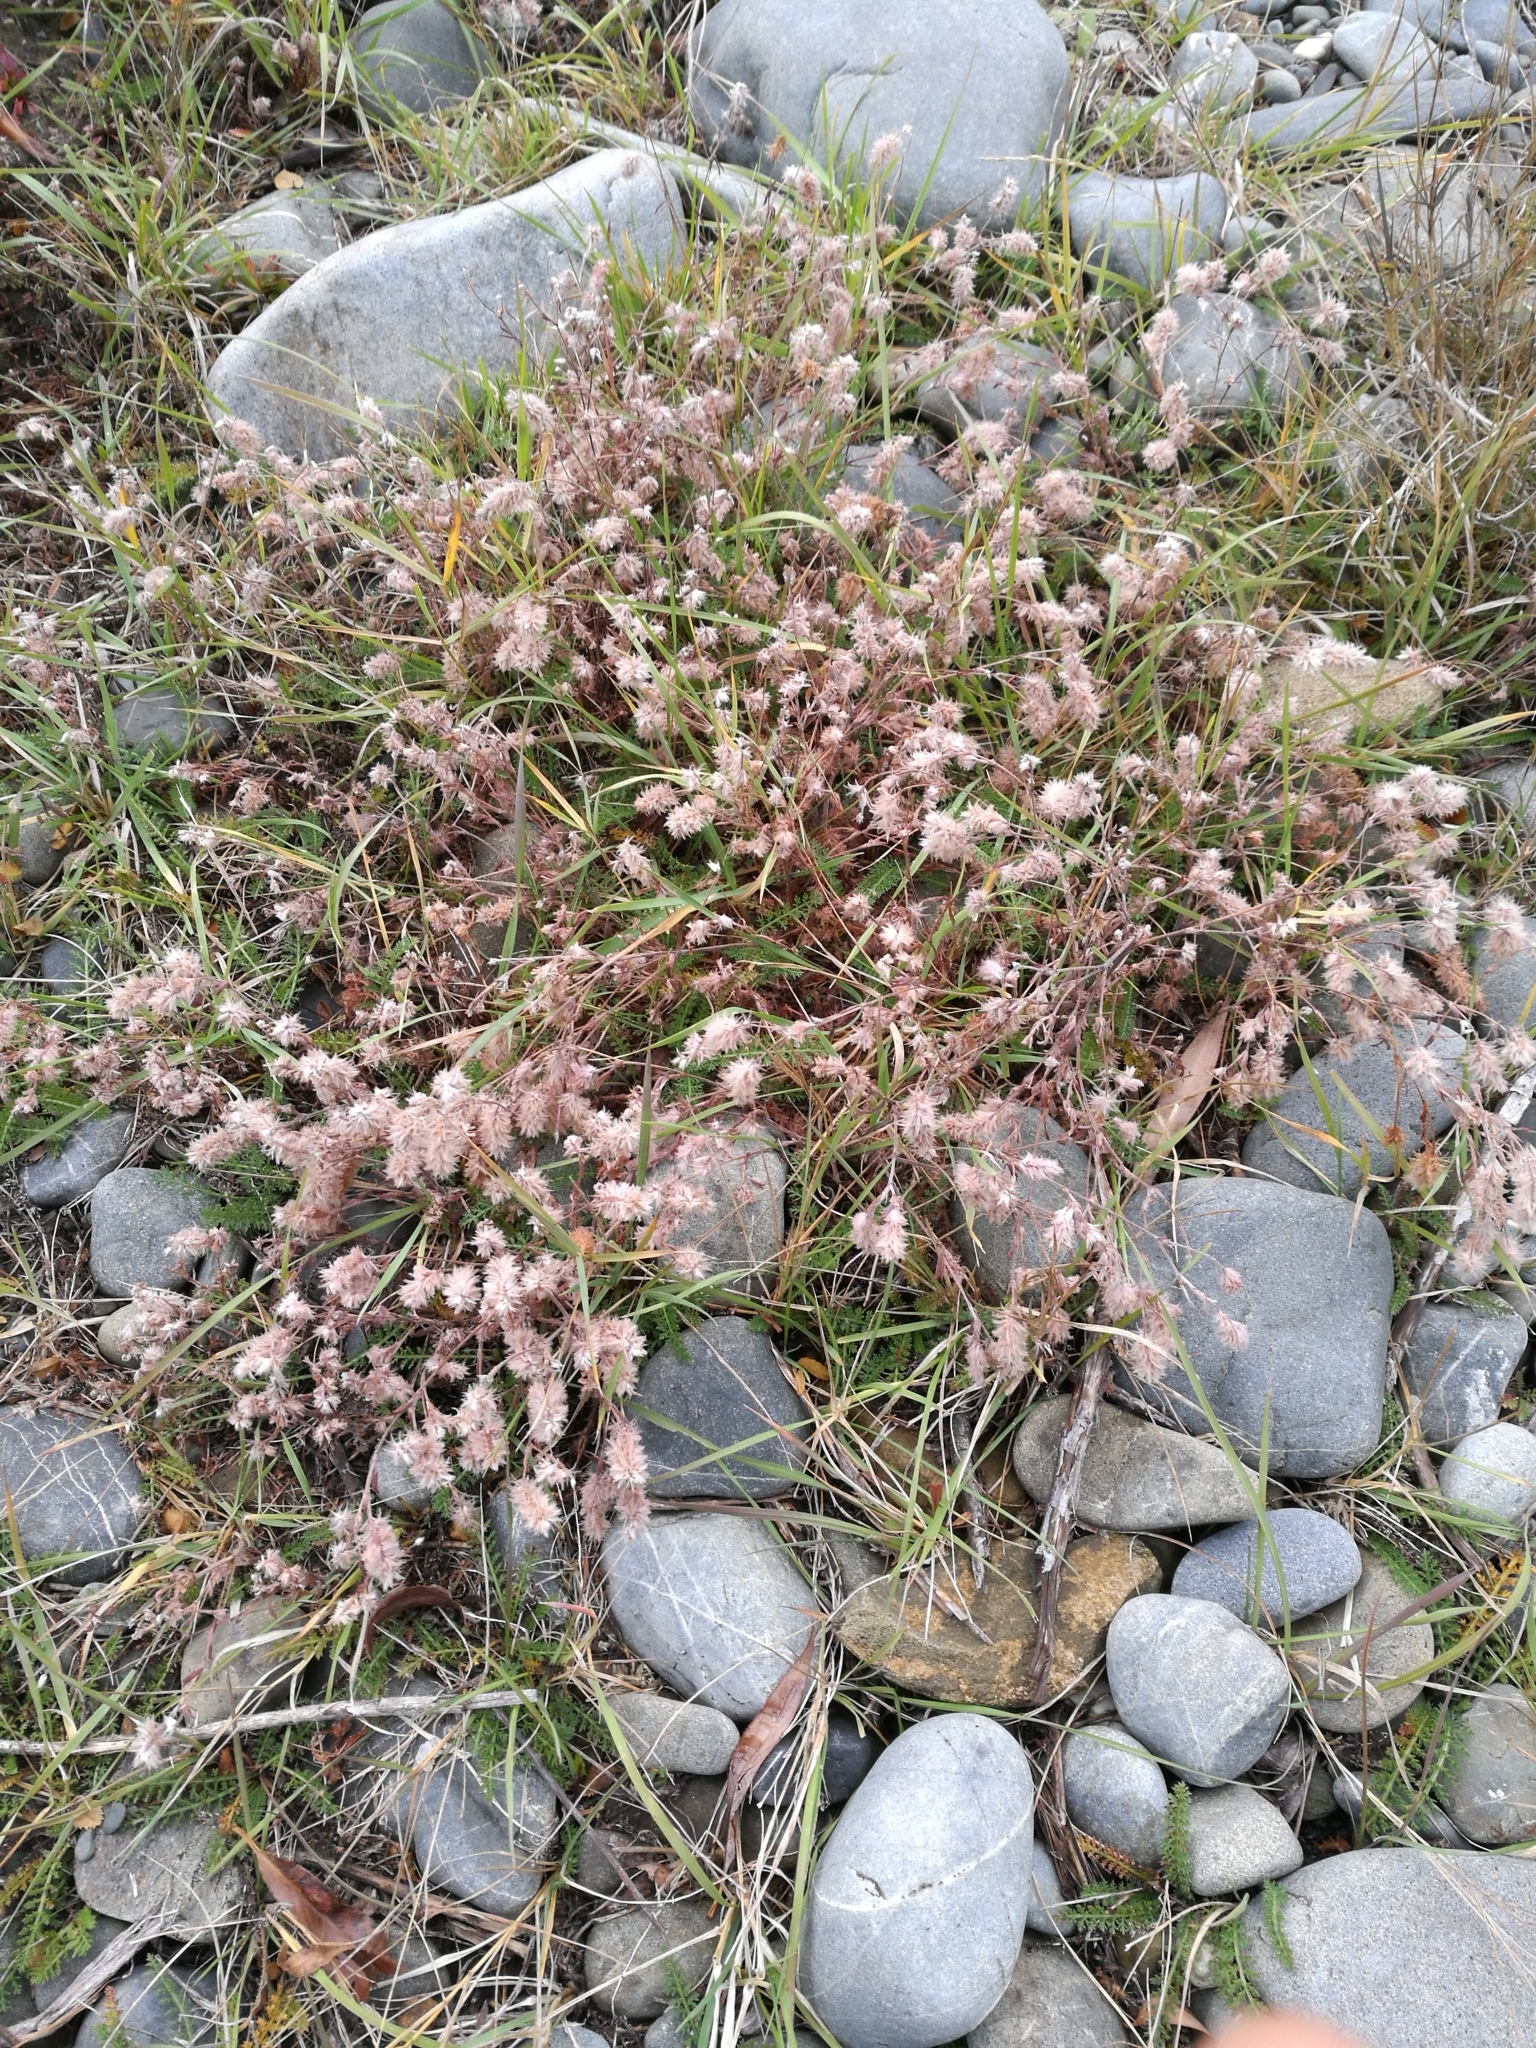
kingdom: Plantae
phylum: Tracheophyta
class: Magnoliopsida
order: Fabales
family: Fabaceae
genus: Trifolium
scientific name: Trifolium arvense
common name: Hare's-foot clover
